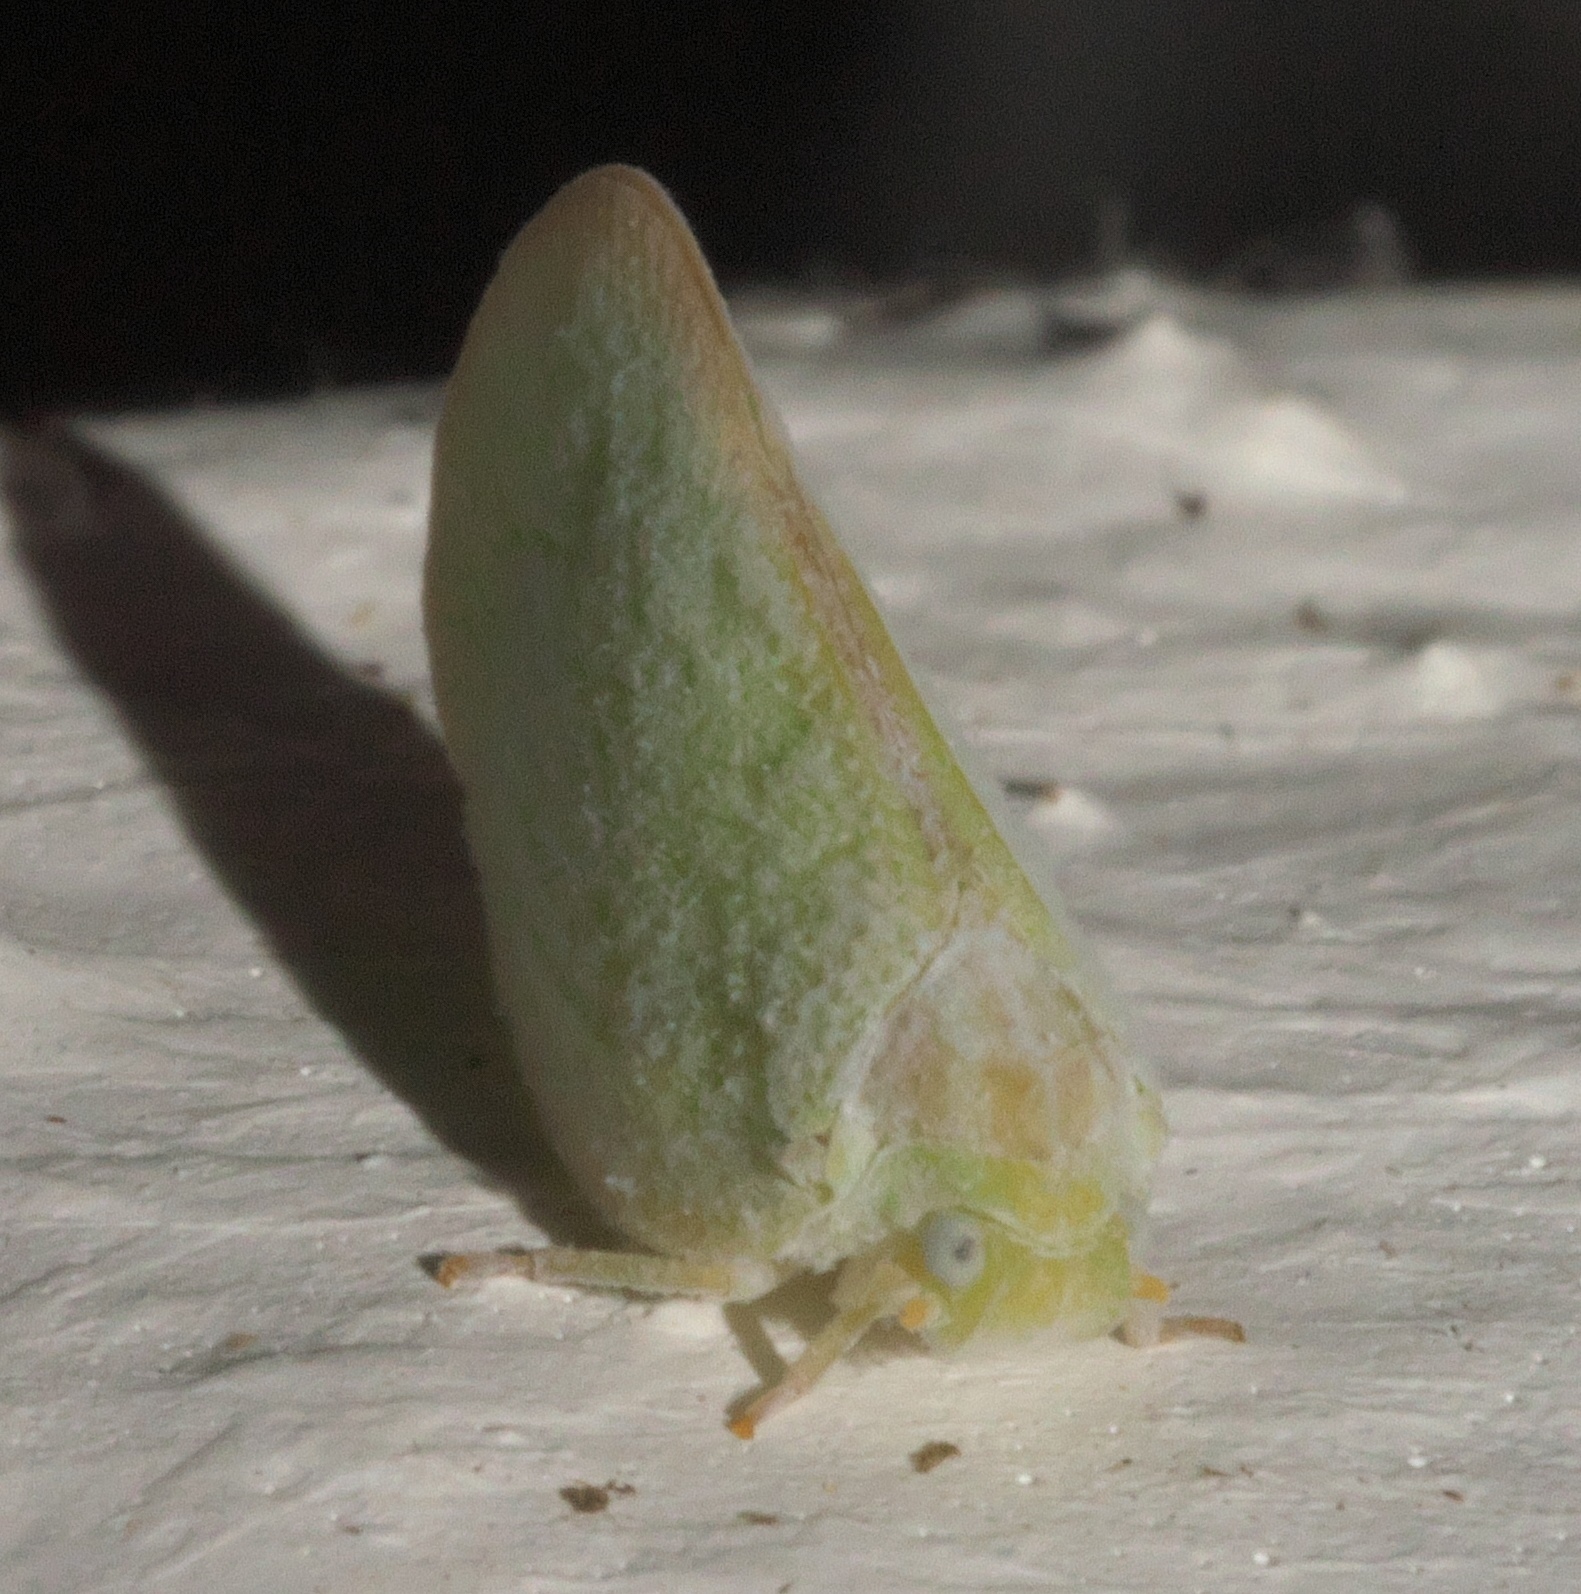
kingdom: Animalia
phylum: Arthropoda
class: Insecta
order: Hemiptera
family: Flatidae
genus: Ormenoides
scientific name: Ormenoides venusta
